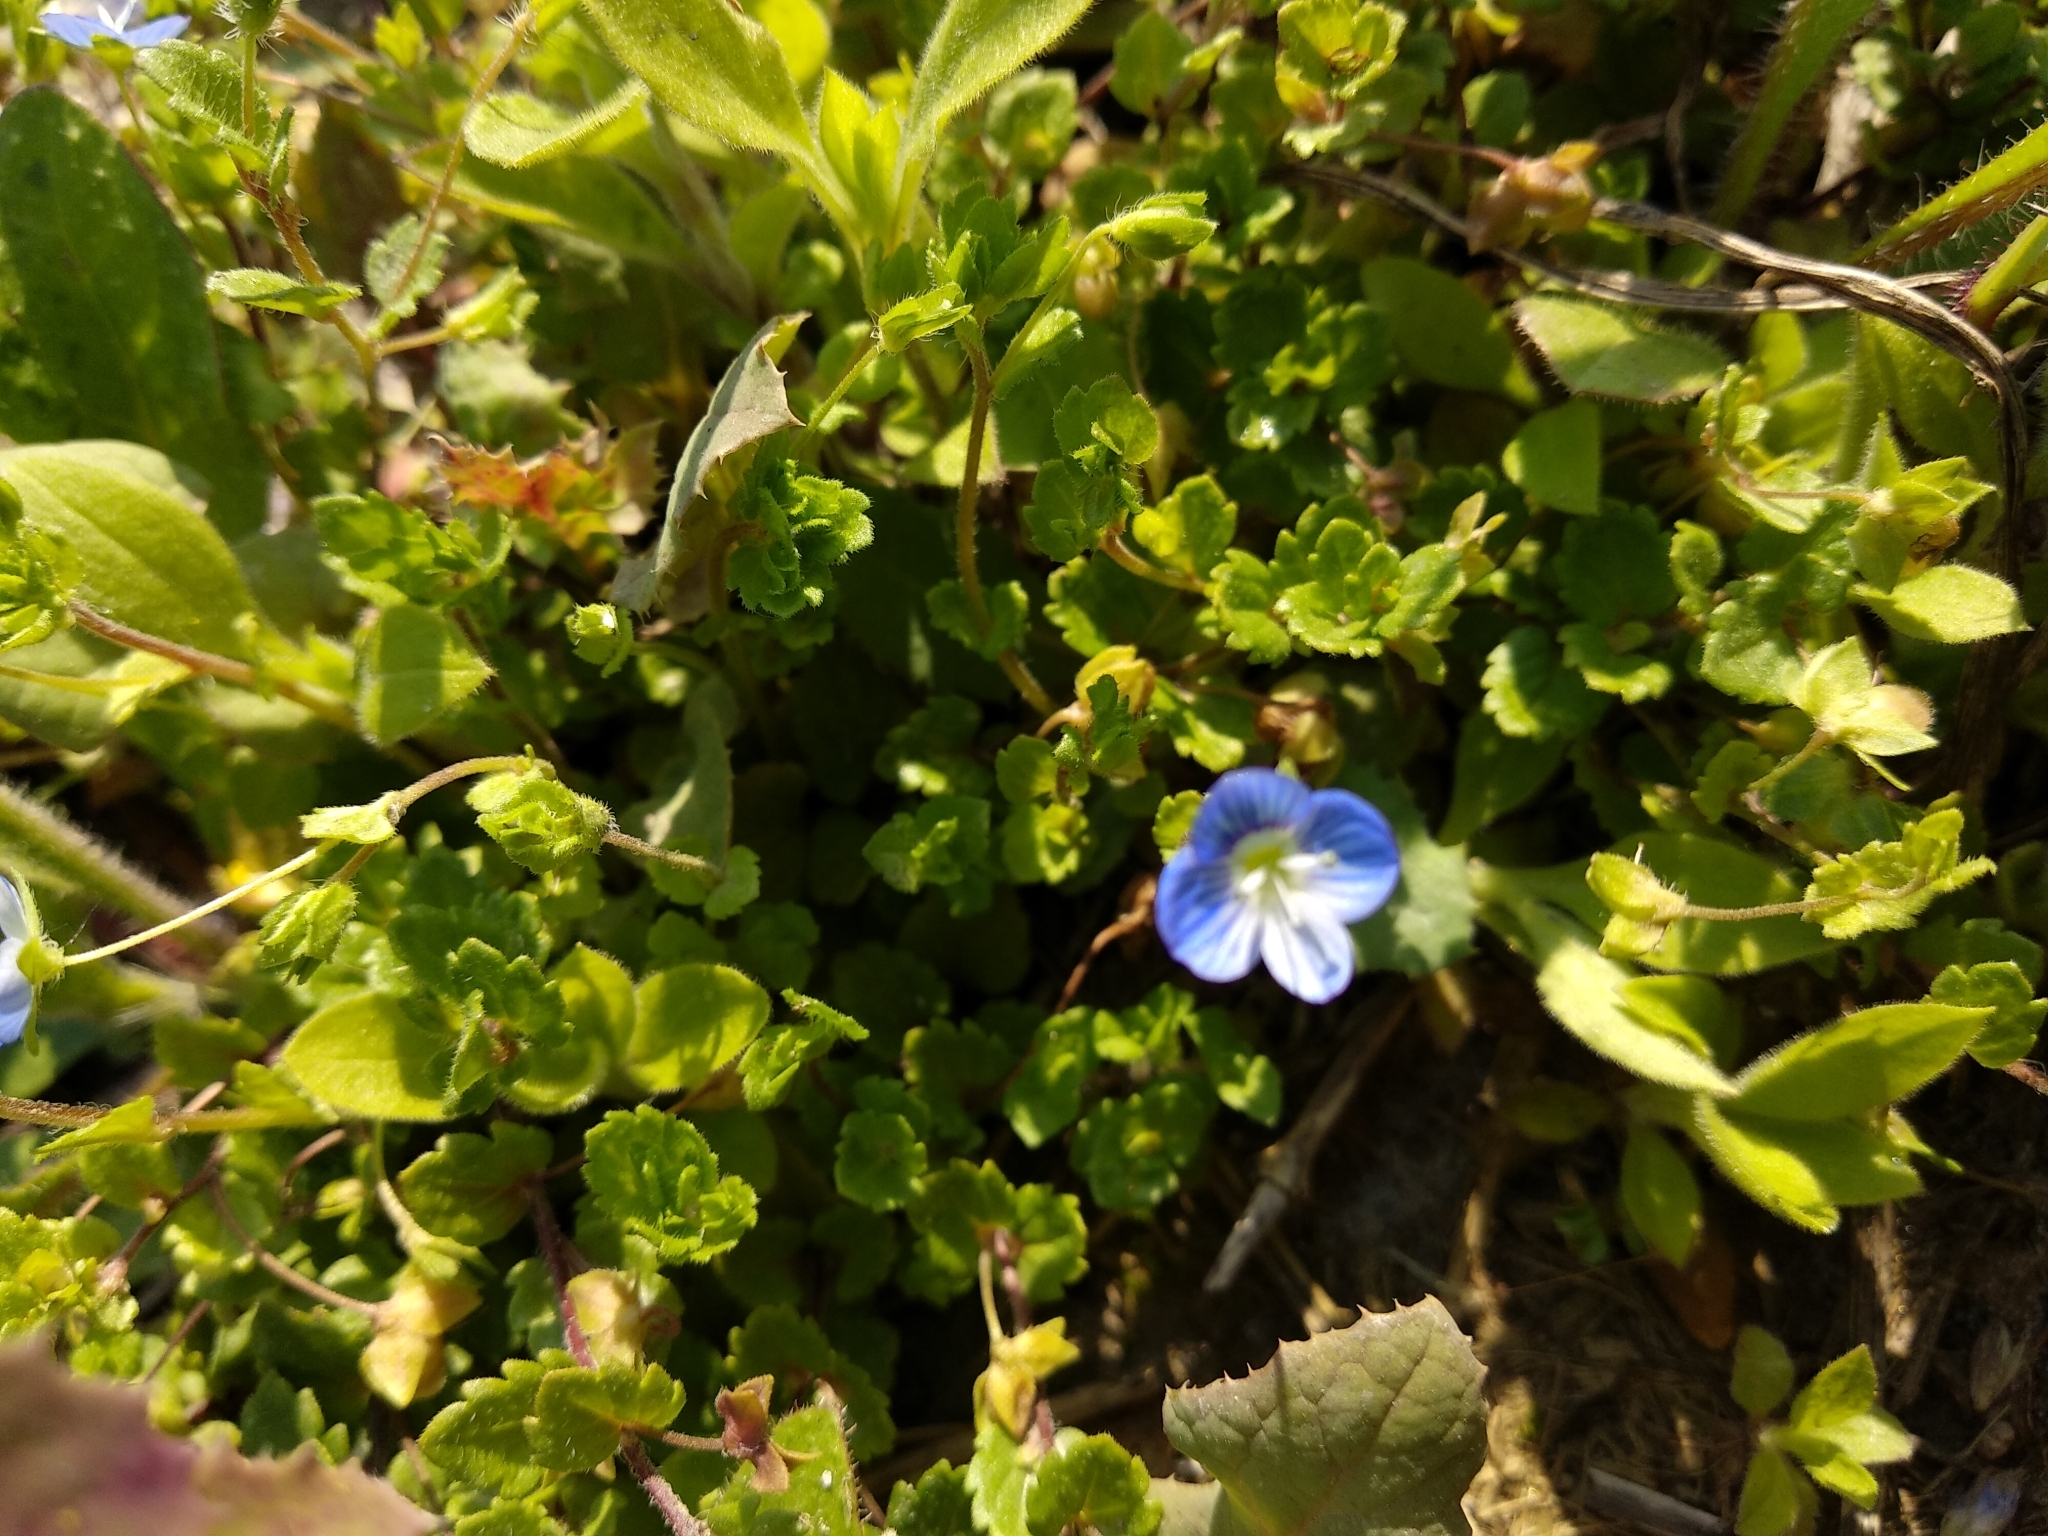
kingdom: Plantae
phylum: Tracheophyta
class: Magnoliopsida
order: Lamiales
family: Plantaginaceae
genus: Veronica
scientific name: Veronica persica
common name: Common field-speedwell
